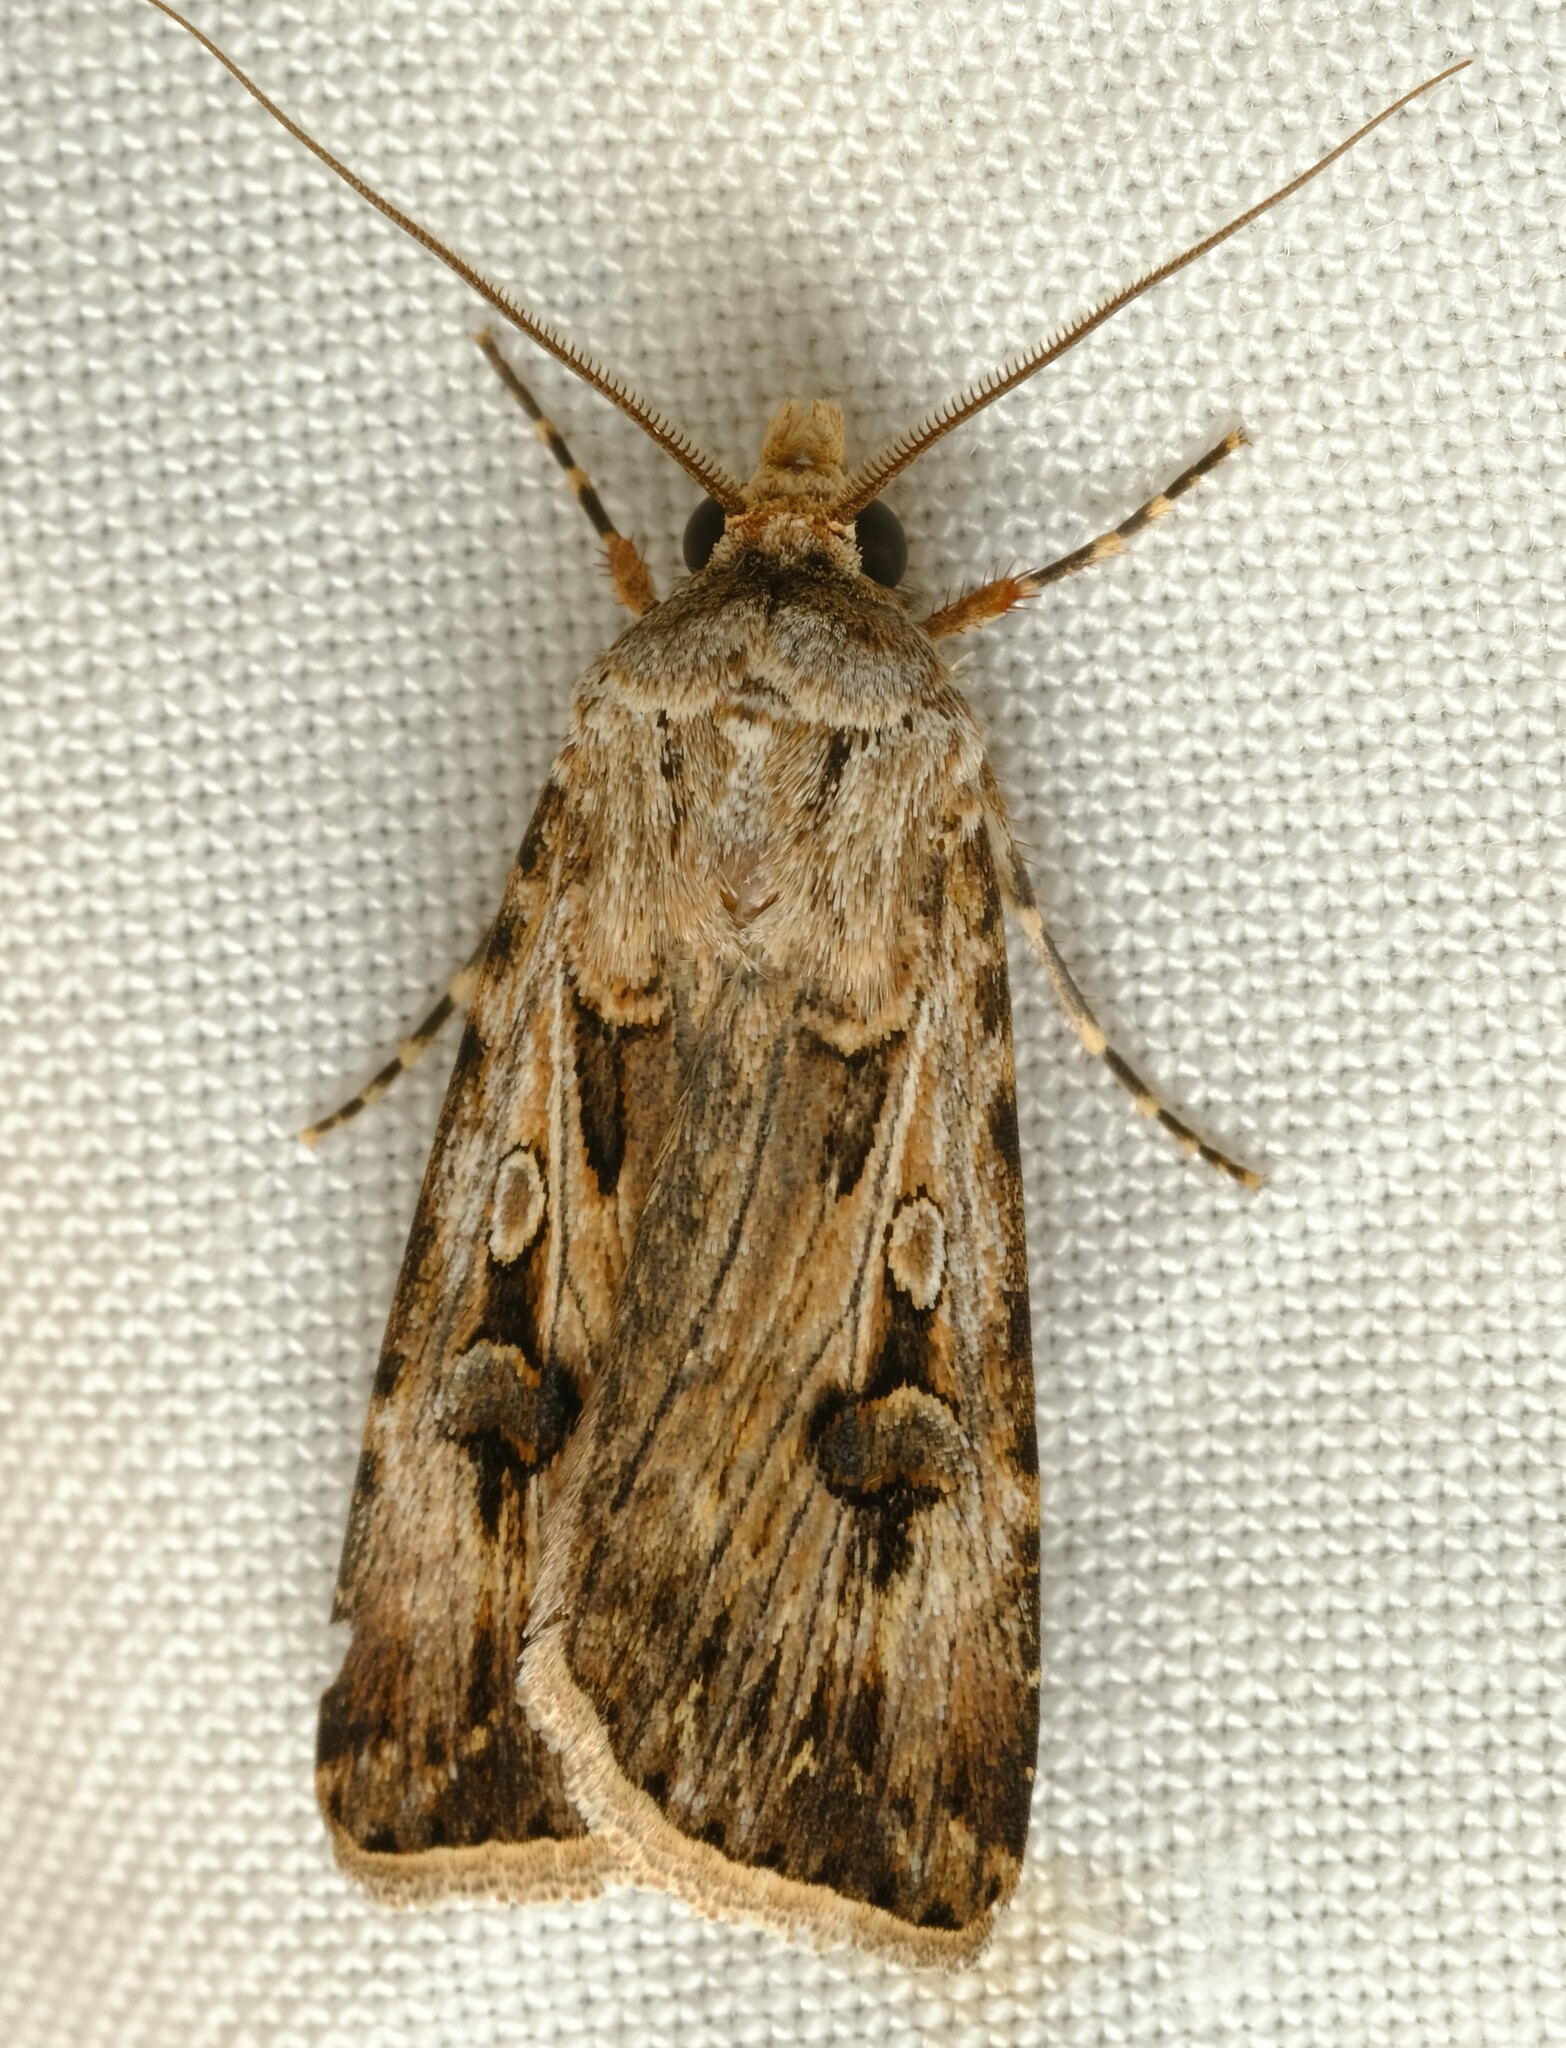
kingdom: Animalia
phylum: Arthropoda
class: Insecta
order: Lepidoptera
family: Noctuidae
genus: Agrotis
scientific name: Agrotis munda
